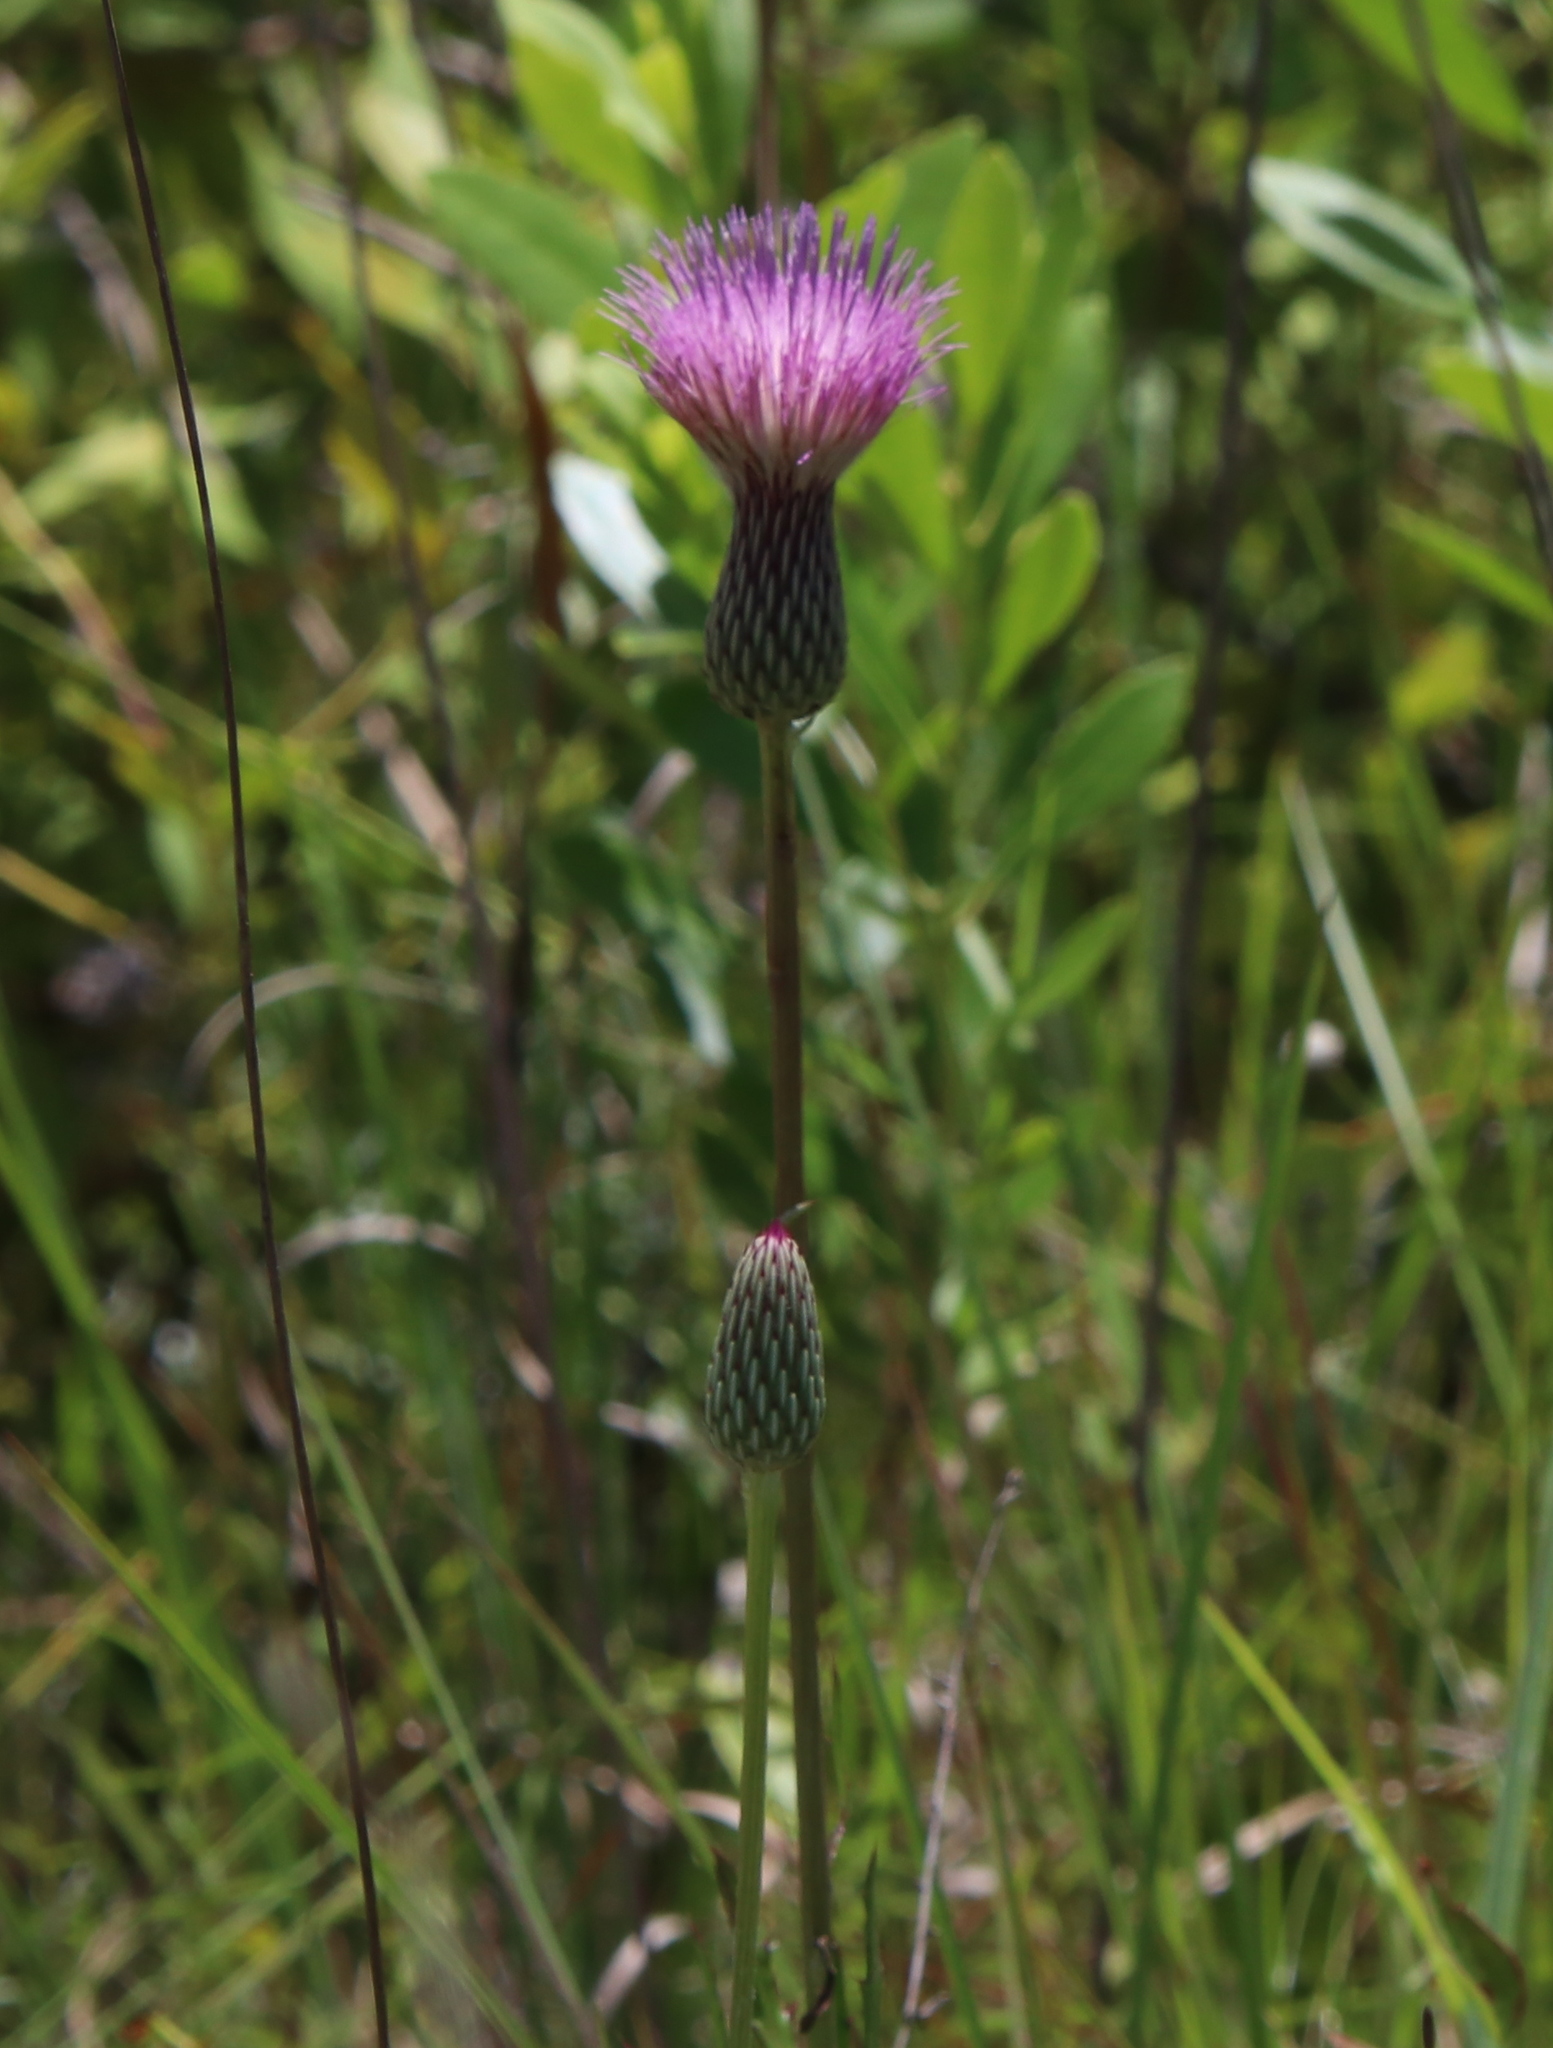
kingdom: Plantae
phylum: Tracheophyta
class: Magnoliopsida
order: Asterales
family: Asteraceae
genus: Cirsium
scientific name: Cirsium lecontei
